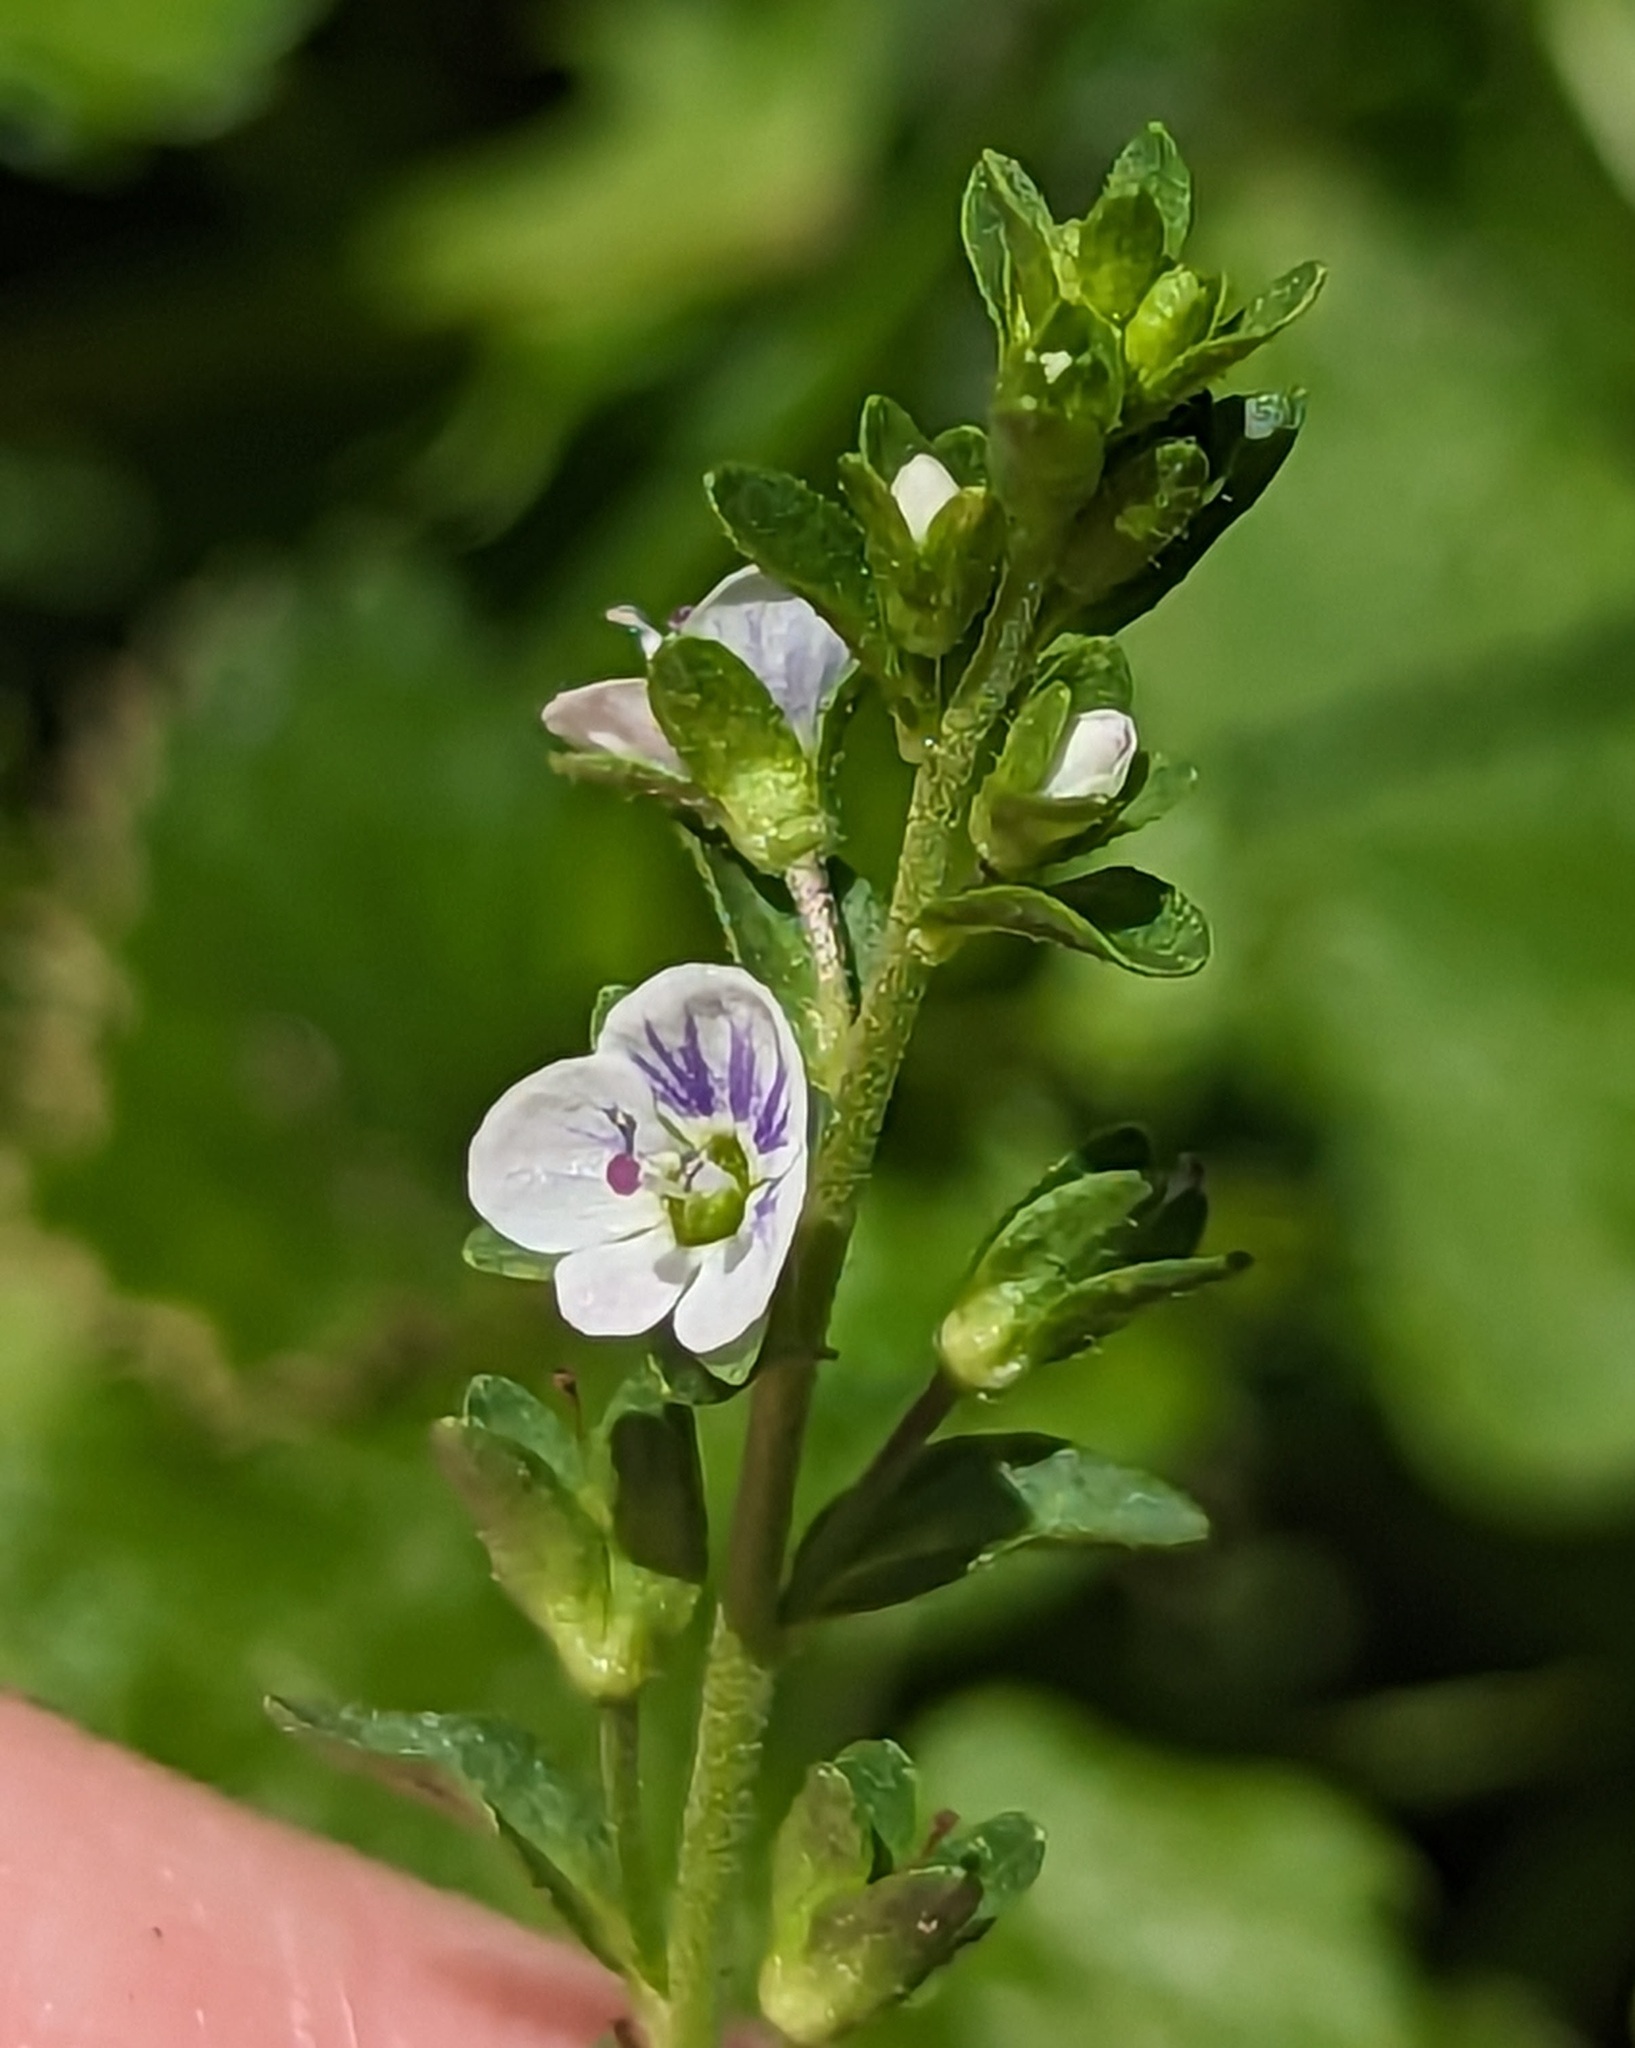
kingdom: Plantae
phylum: Tracheophyta
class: Magnoliopsida
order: Lamiales
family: Plantaginaceae
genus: Veronica
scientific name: Veronica serpyllifolia
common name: Thyme-leaved speedwell
